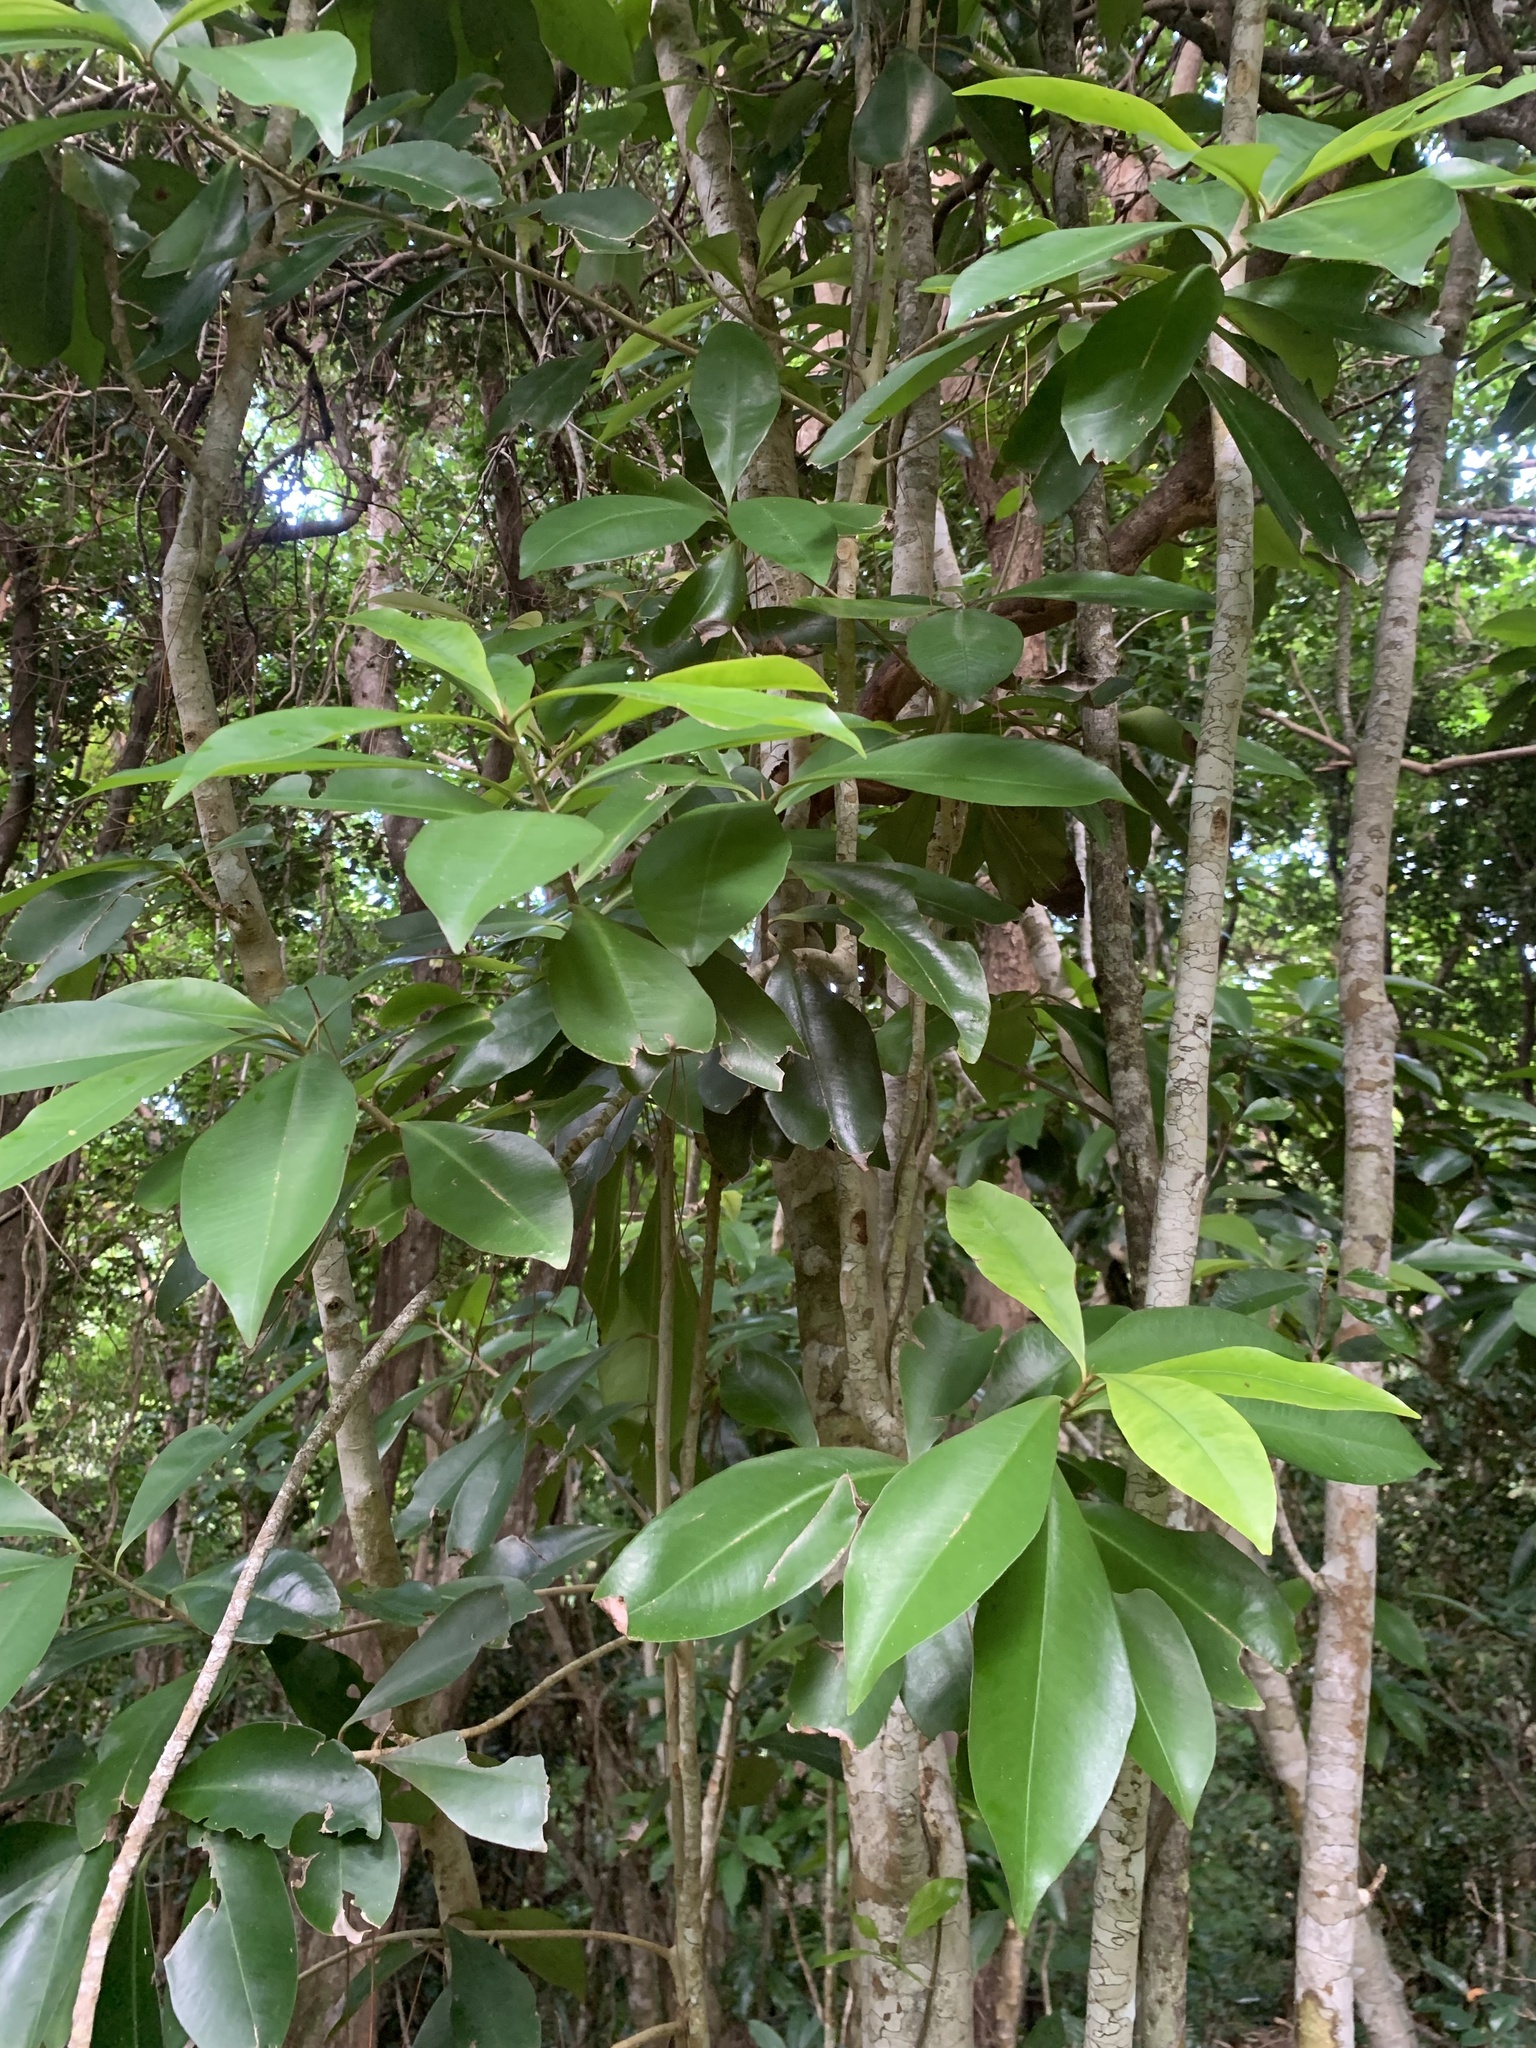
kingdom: Plantae
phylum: Tracheophyta
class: Magnoliopsida
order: Ericales
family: Primulaceae
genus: Ardisia
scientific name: Ardisia sieboldii
